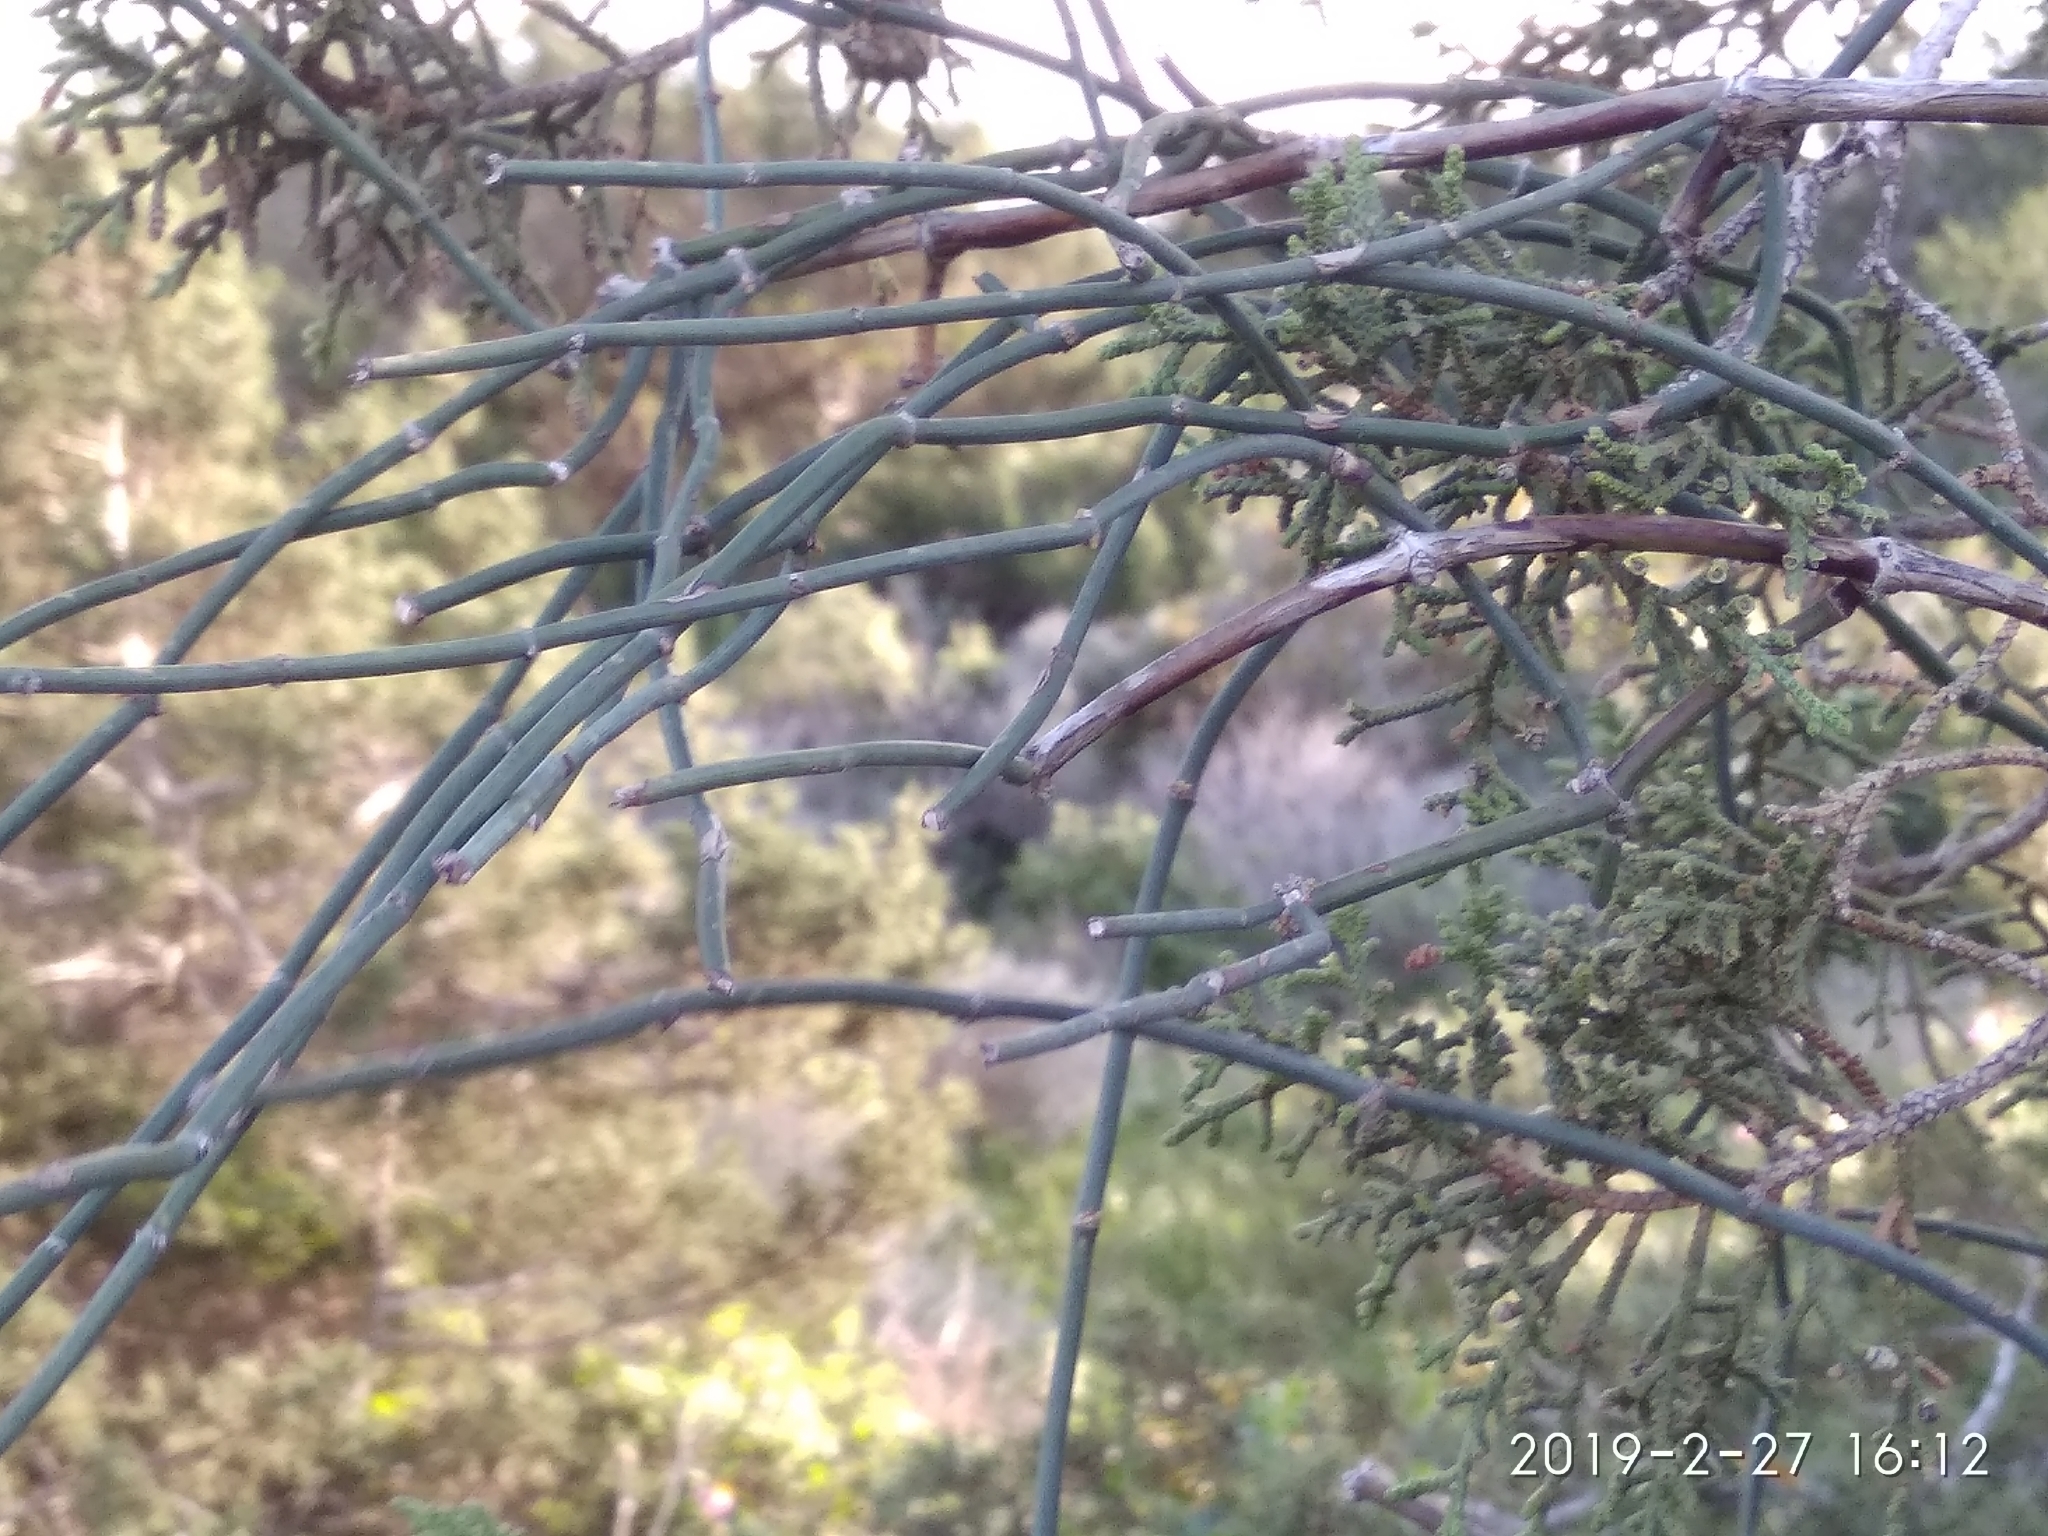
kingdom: Plantae
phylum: Tracheophyta
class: Gnetopsida
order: Ephedrales
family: Ephedraceae
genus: Ephedra
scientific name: Ephedra foeminea
